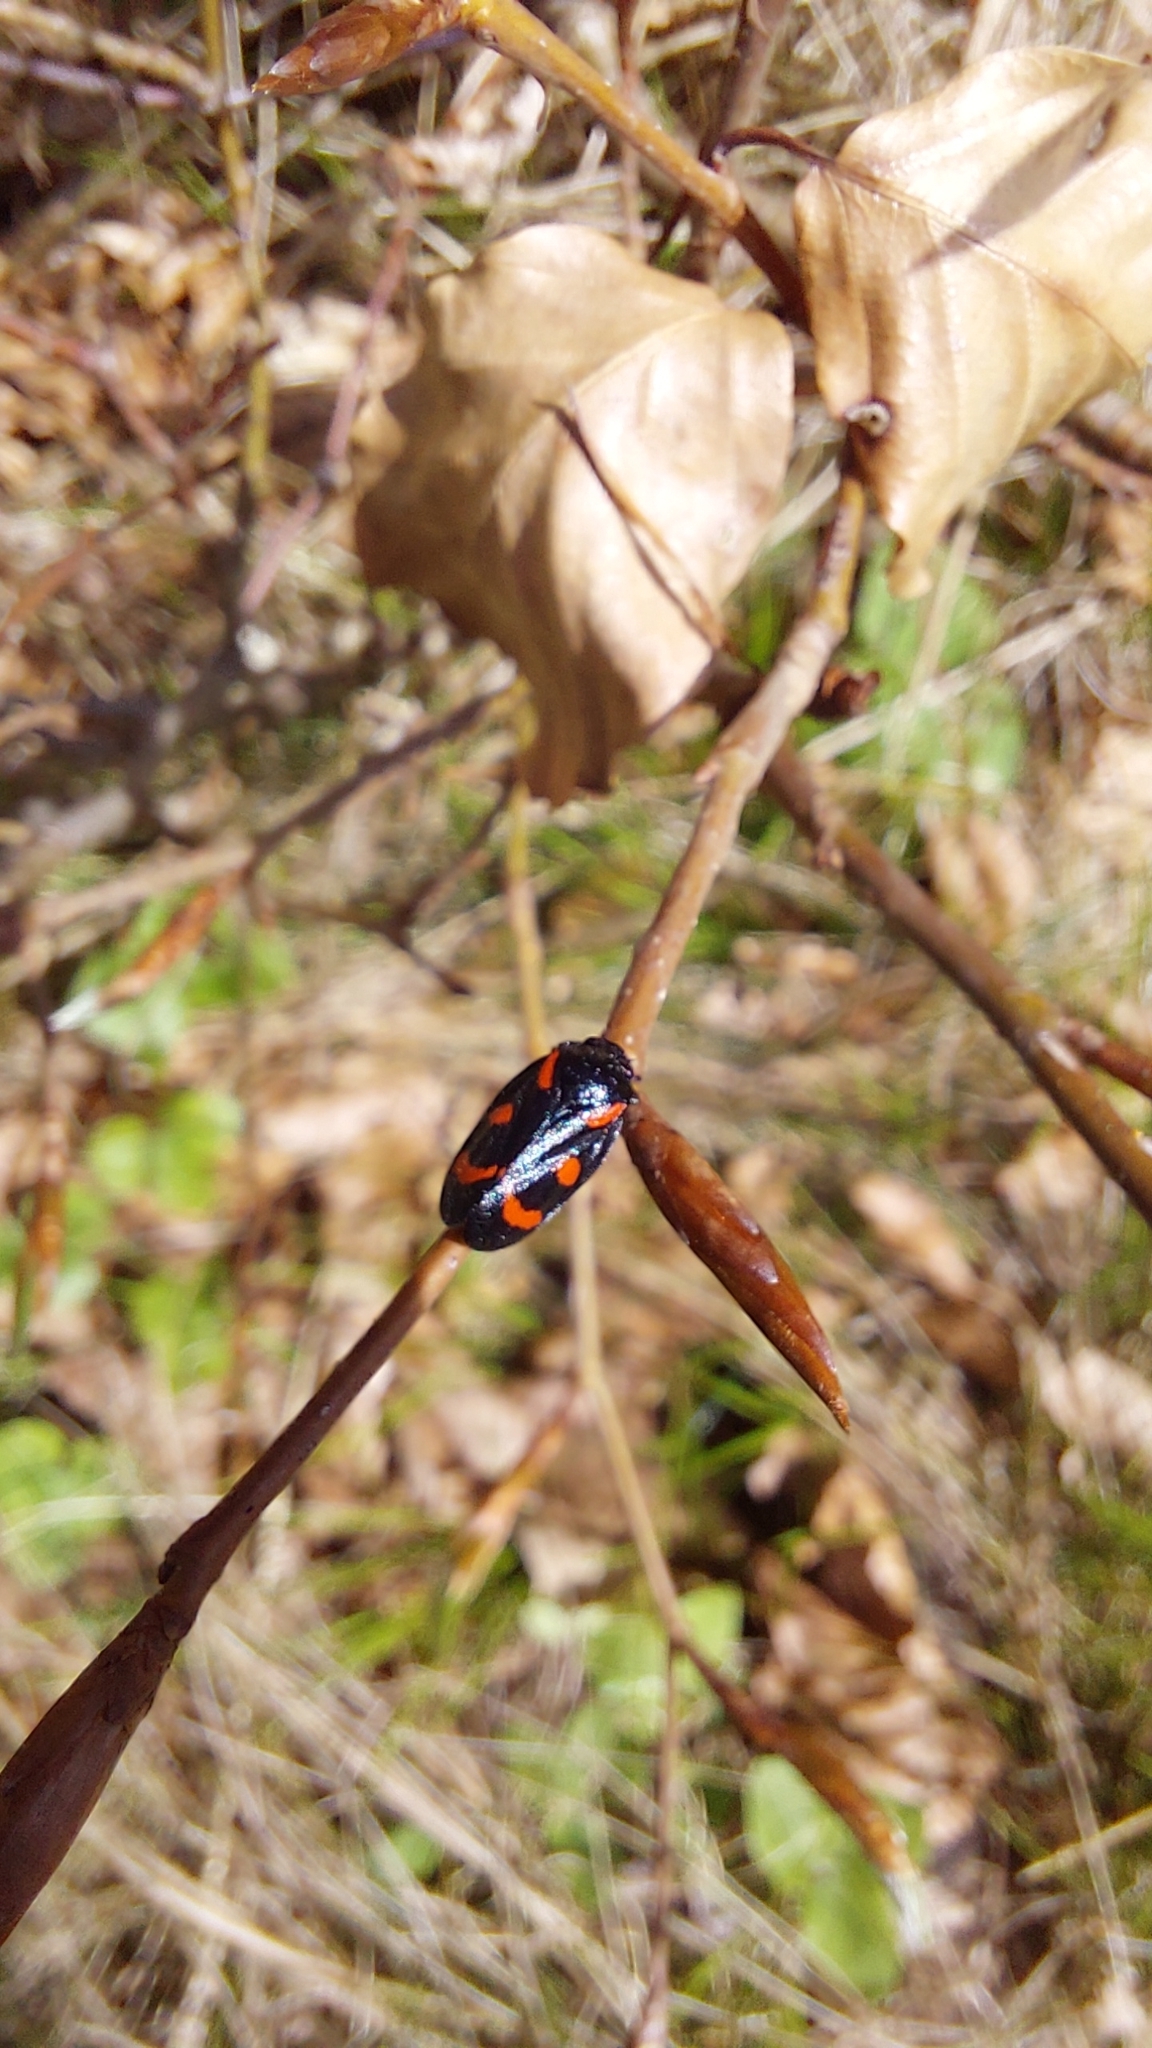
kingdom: Animalia
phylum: Arthropoda
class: Insecta
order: Hemiptera
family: Cercopidae
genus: Cercopis
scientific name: Cercopis sanguinolenta
